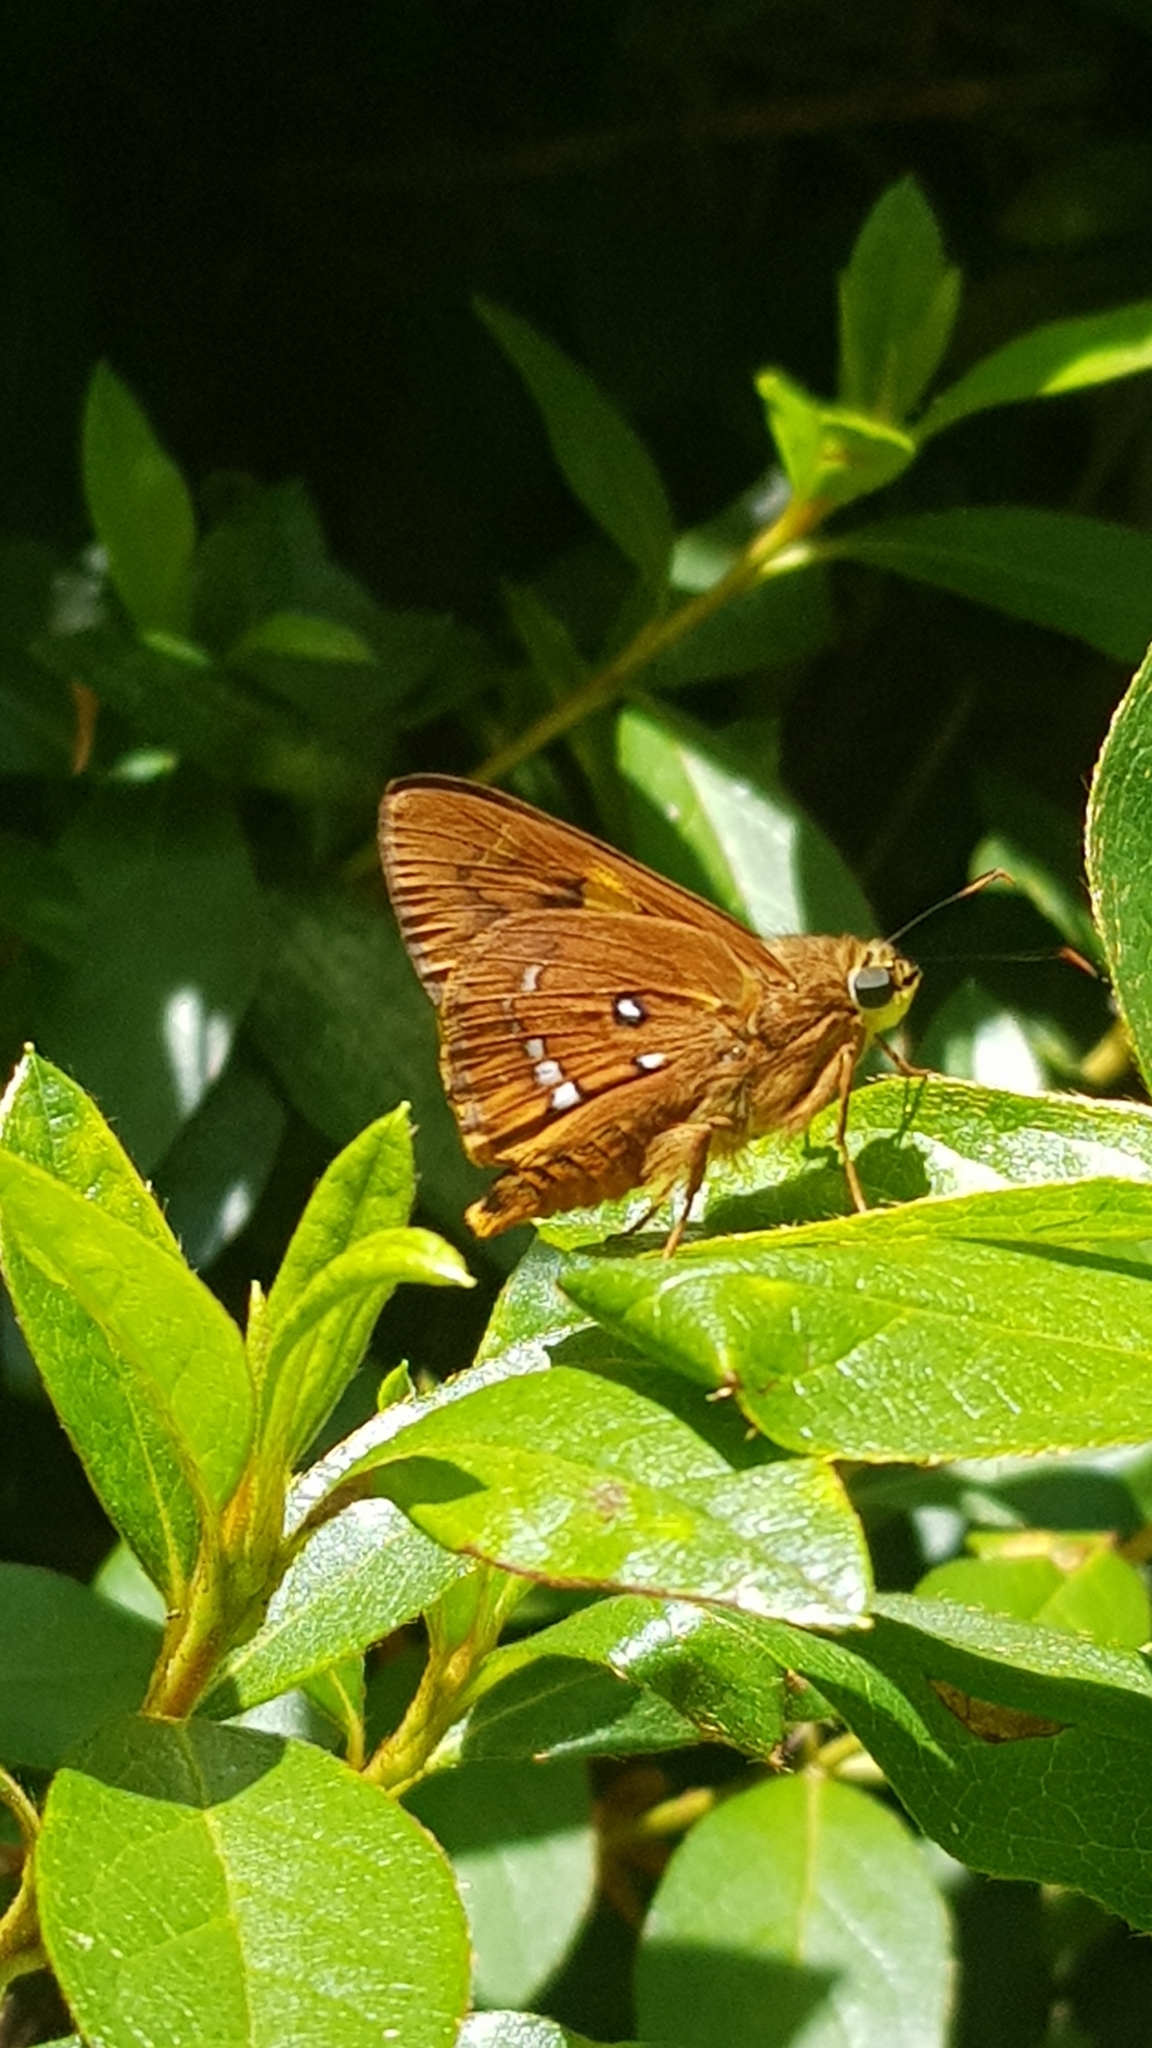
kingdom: Animalia
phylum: Arthropoda
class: Insecta
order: Lepidoptera
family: Hesperiidae
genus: Trapezites
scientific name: Trapezites symmomus
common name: Splendid ochre
